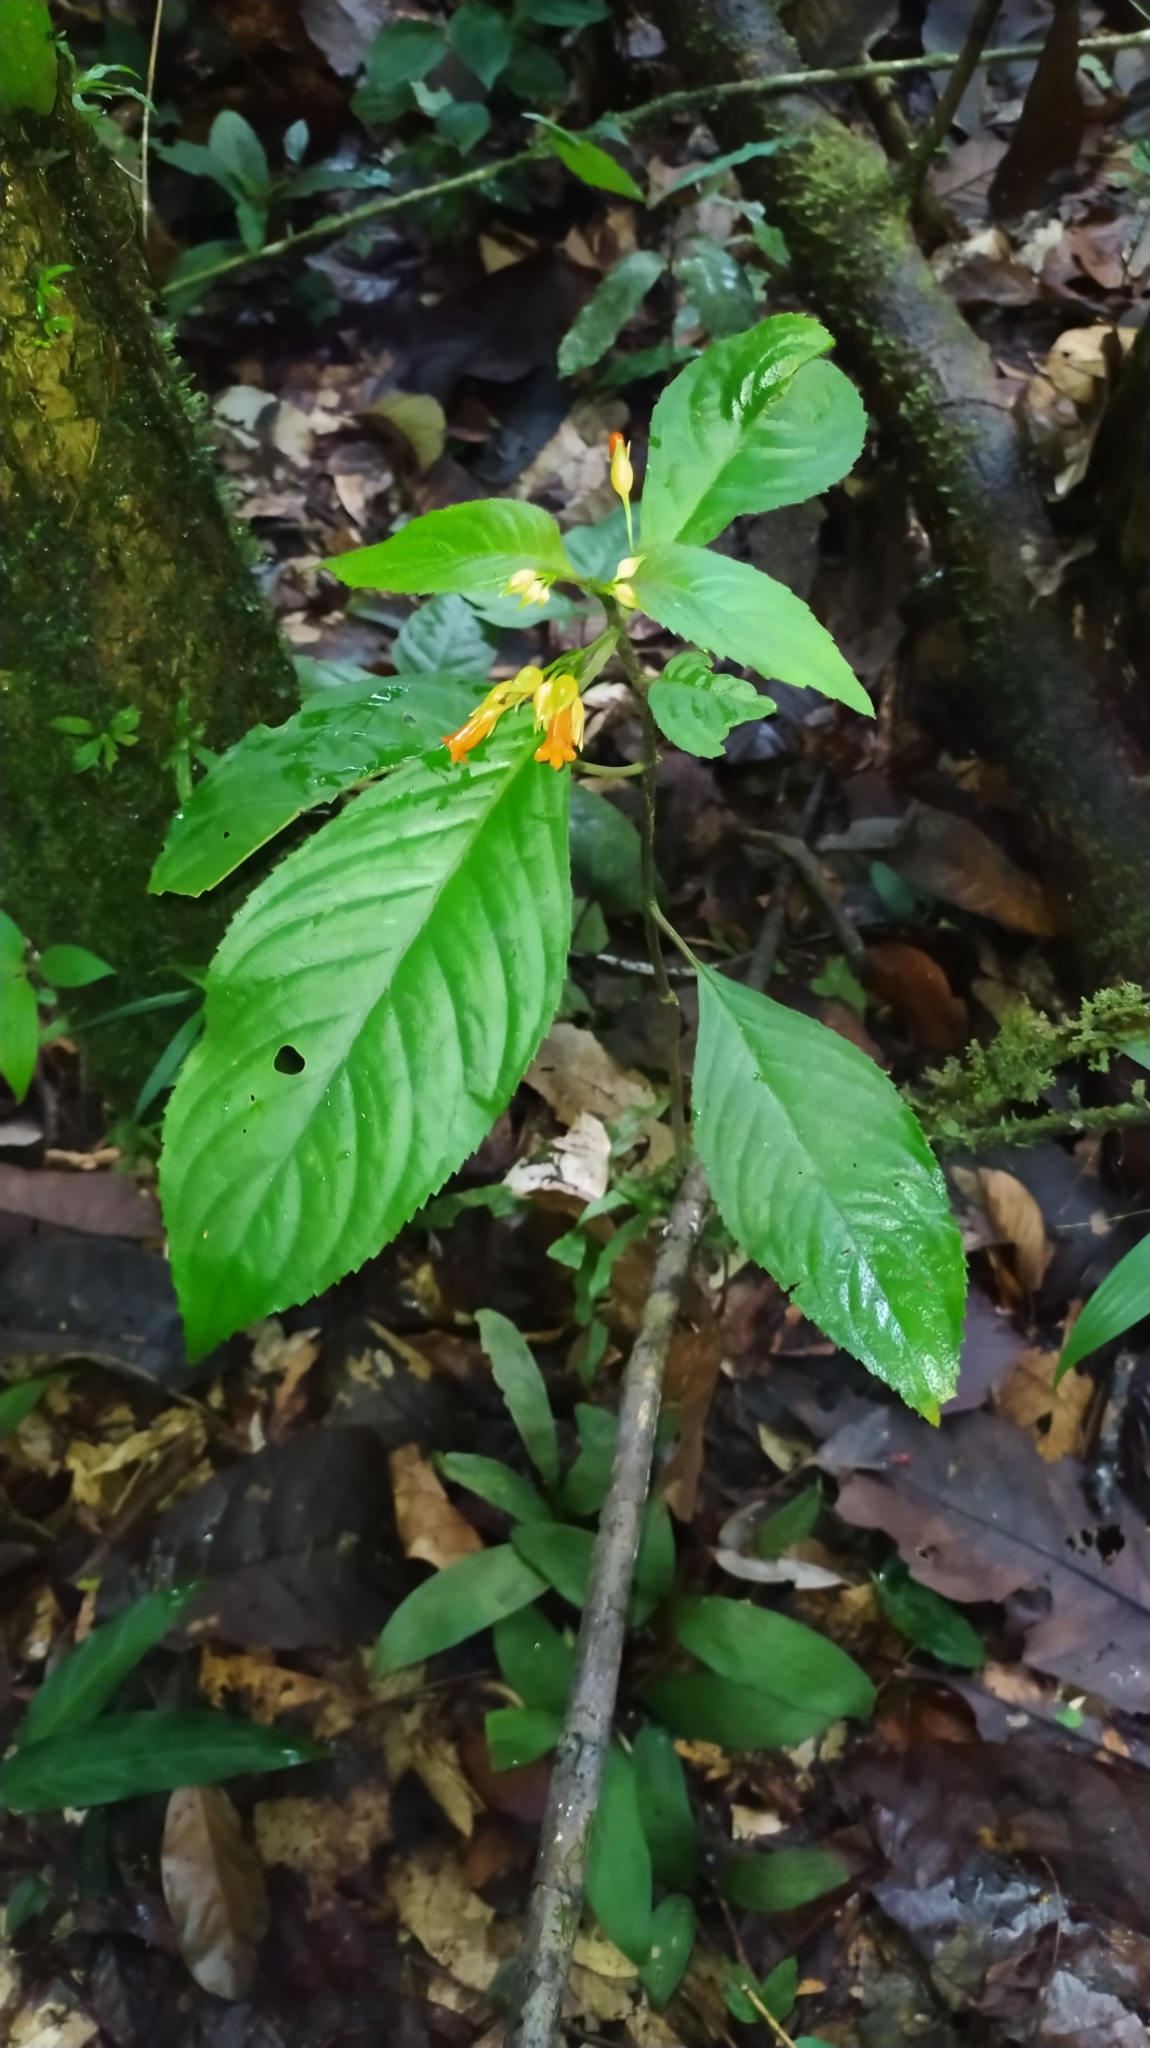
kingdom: Plantae
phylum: Tracheophyta
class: Magnoliopsida
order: Lamiales
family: Gesneriaceae
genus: Besleria
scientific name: Besleria patrisii
